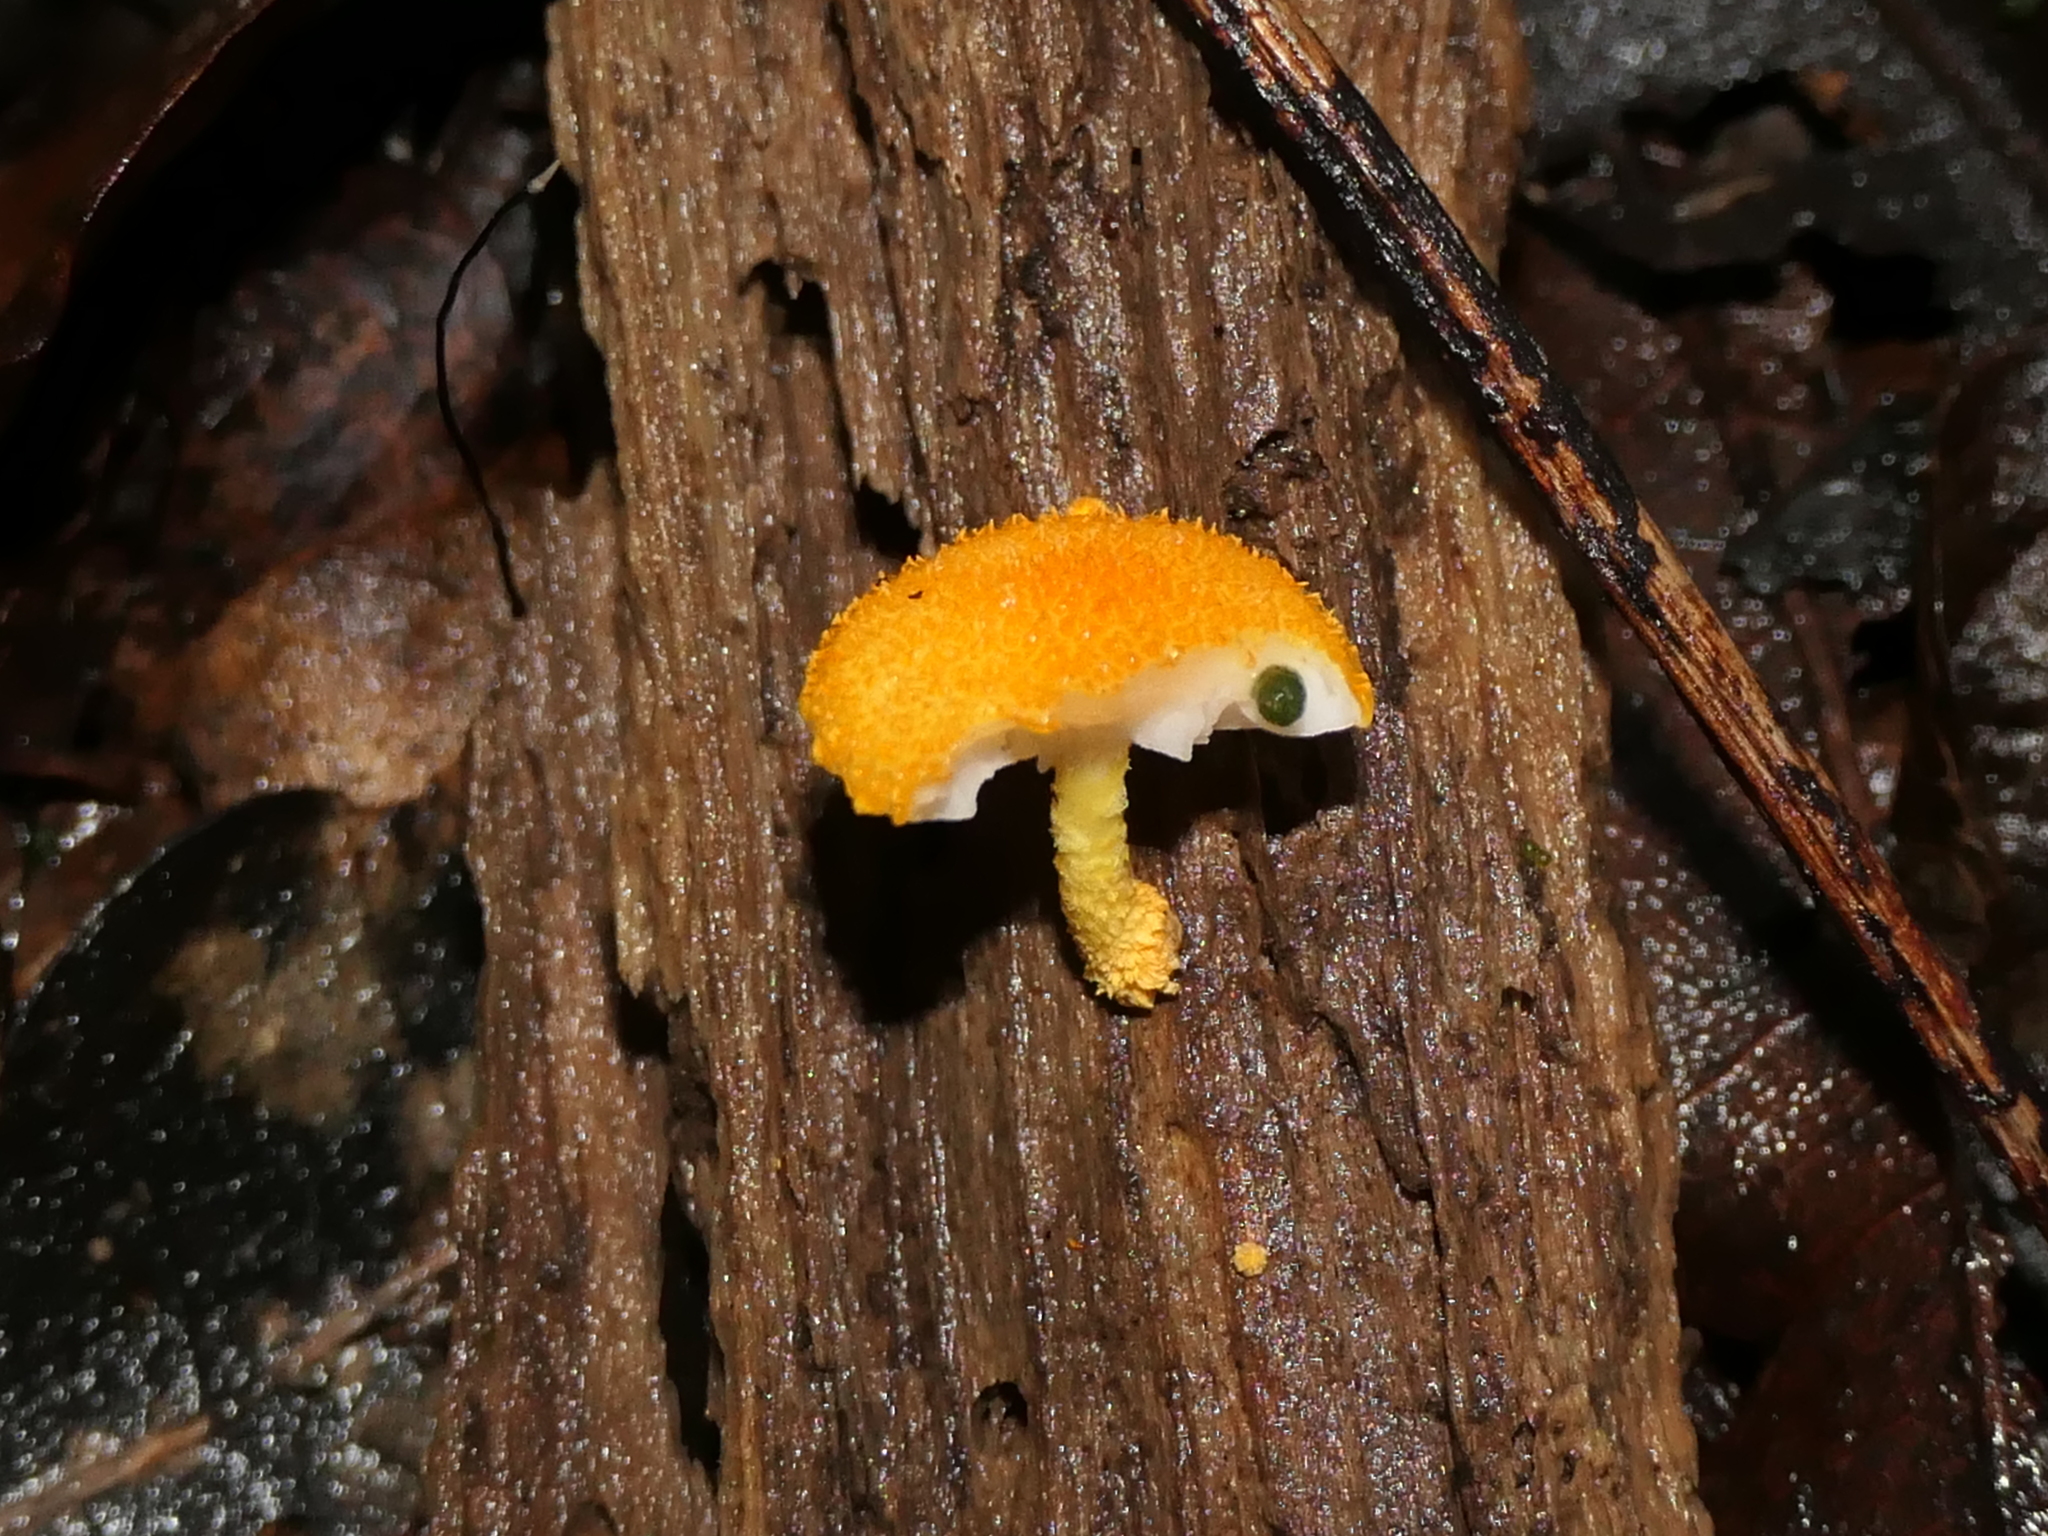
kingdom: Fungi
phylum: Basidiomycota
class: Agaricomycetes
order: Agaricales
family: Physalacriaceae
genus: Cyptotrama
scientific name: Cyptotrama asprata
